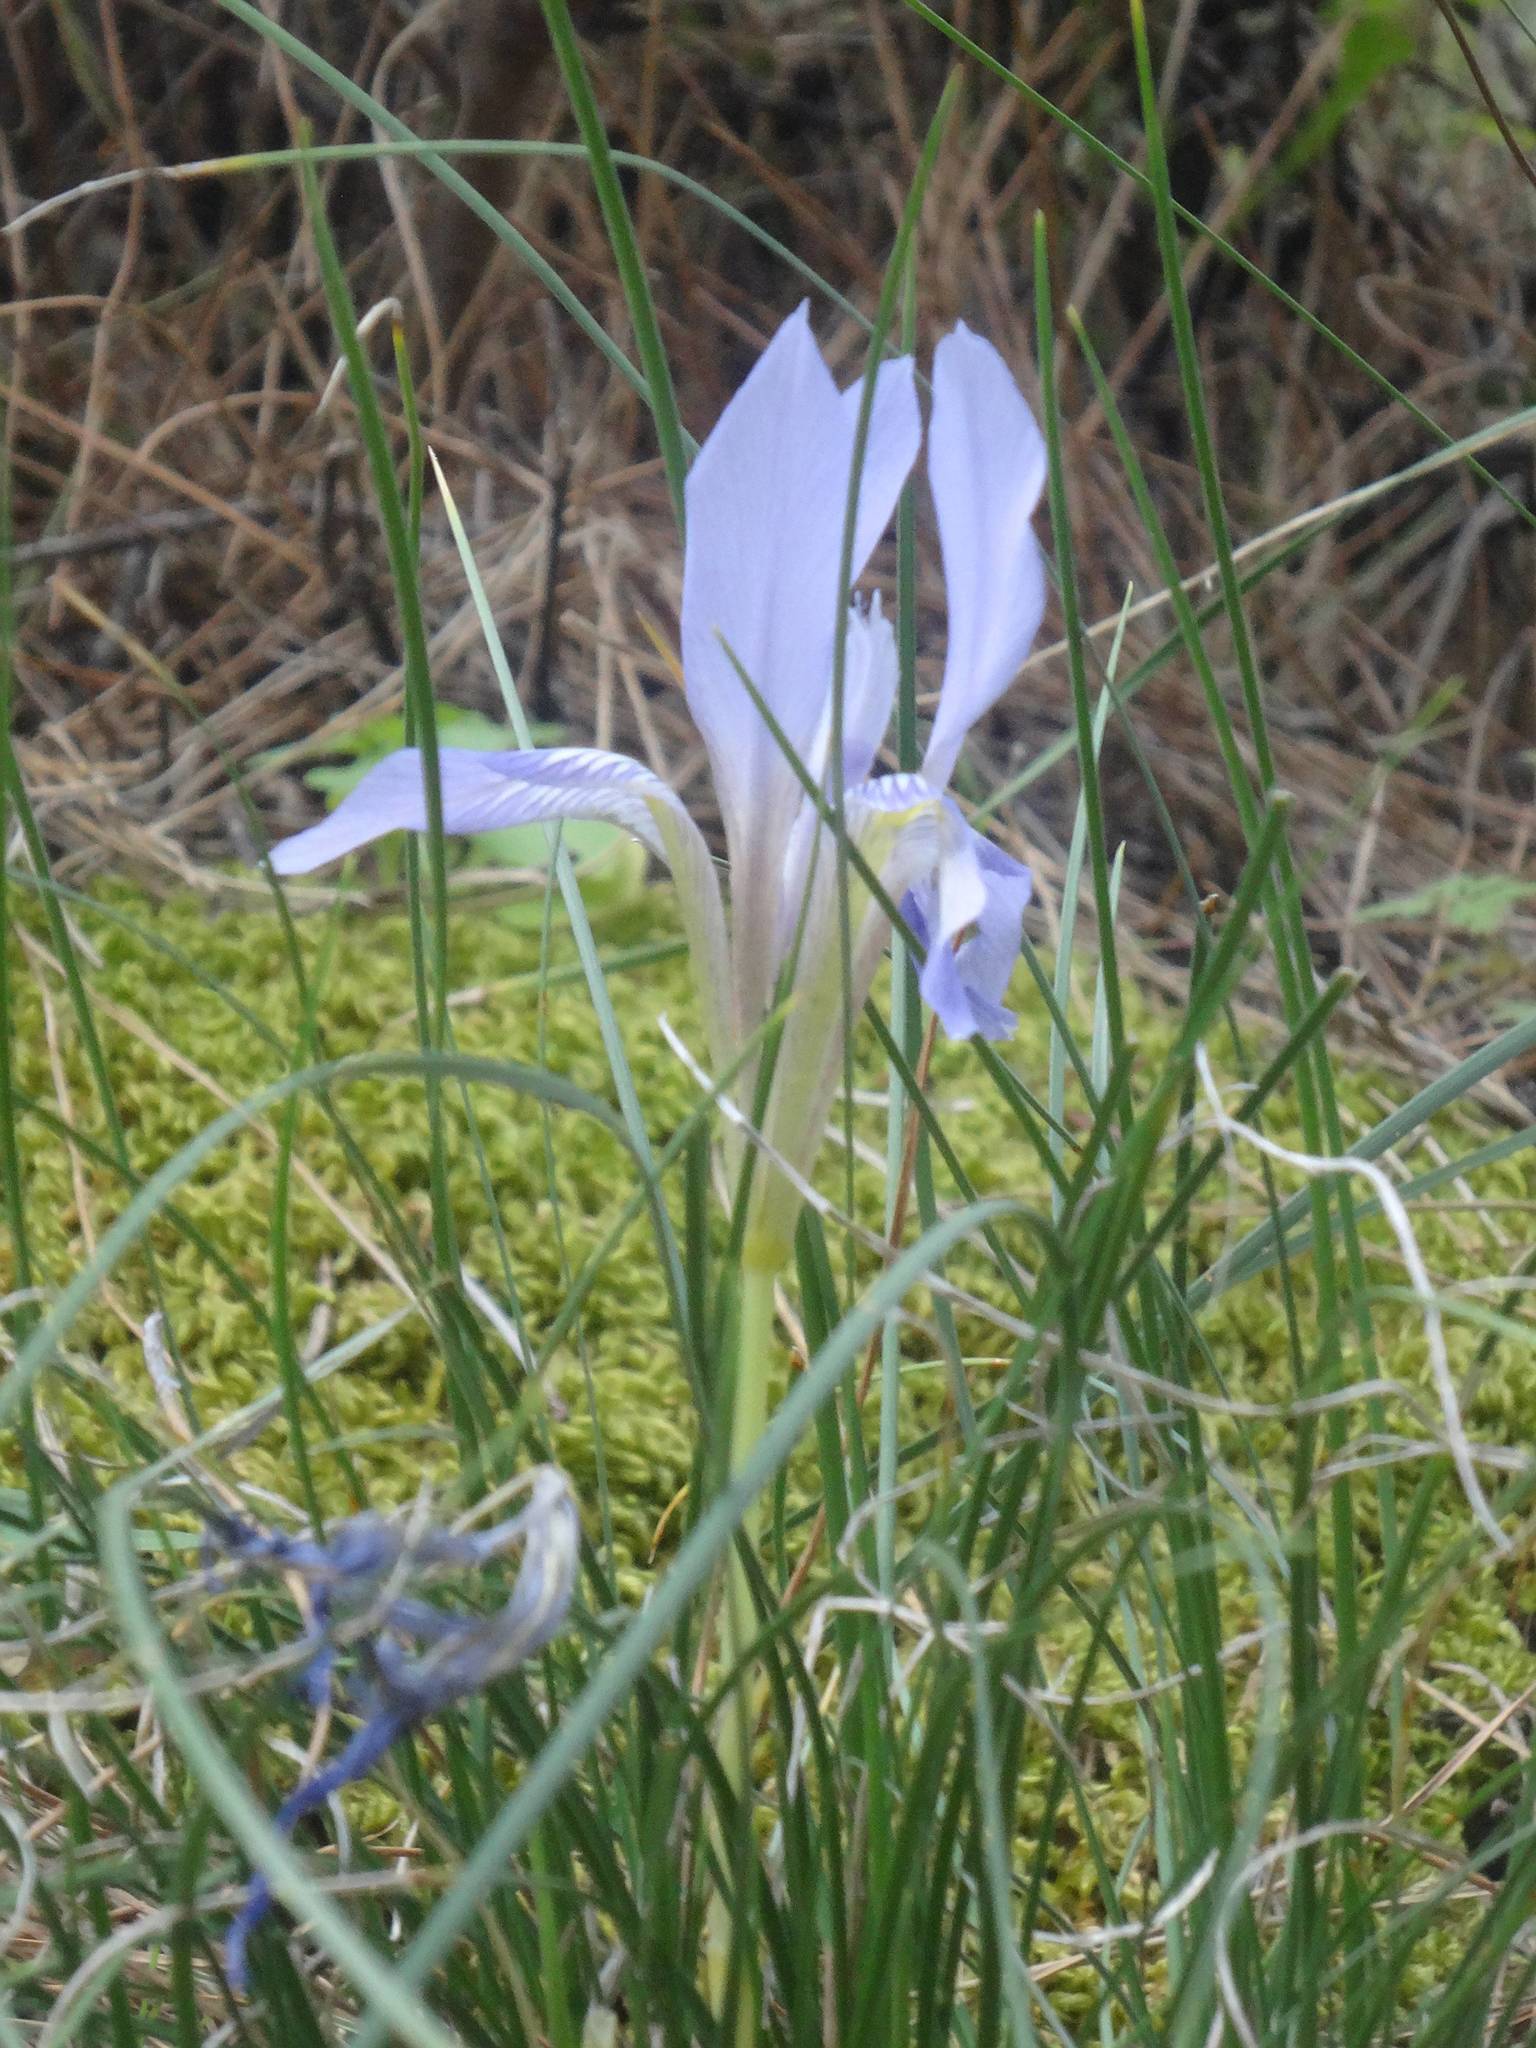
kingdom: Plantae
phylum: Tracheophyta
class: Liliopsida
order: Asparagales
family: Iridaceae
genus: Iris
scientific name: Iris unguicularis
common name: Algerian iris
